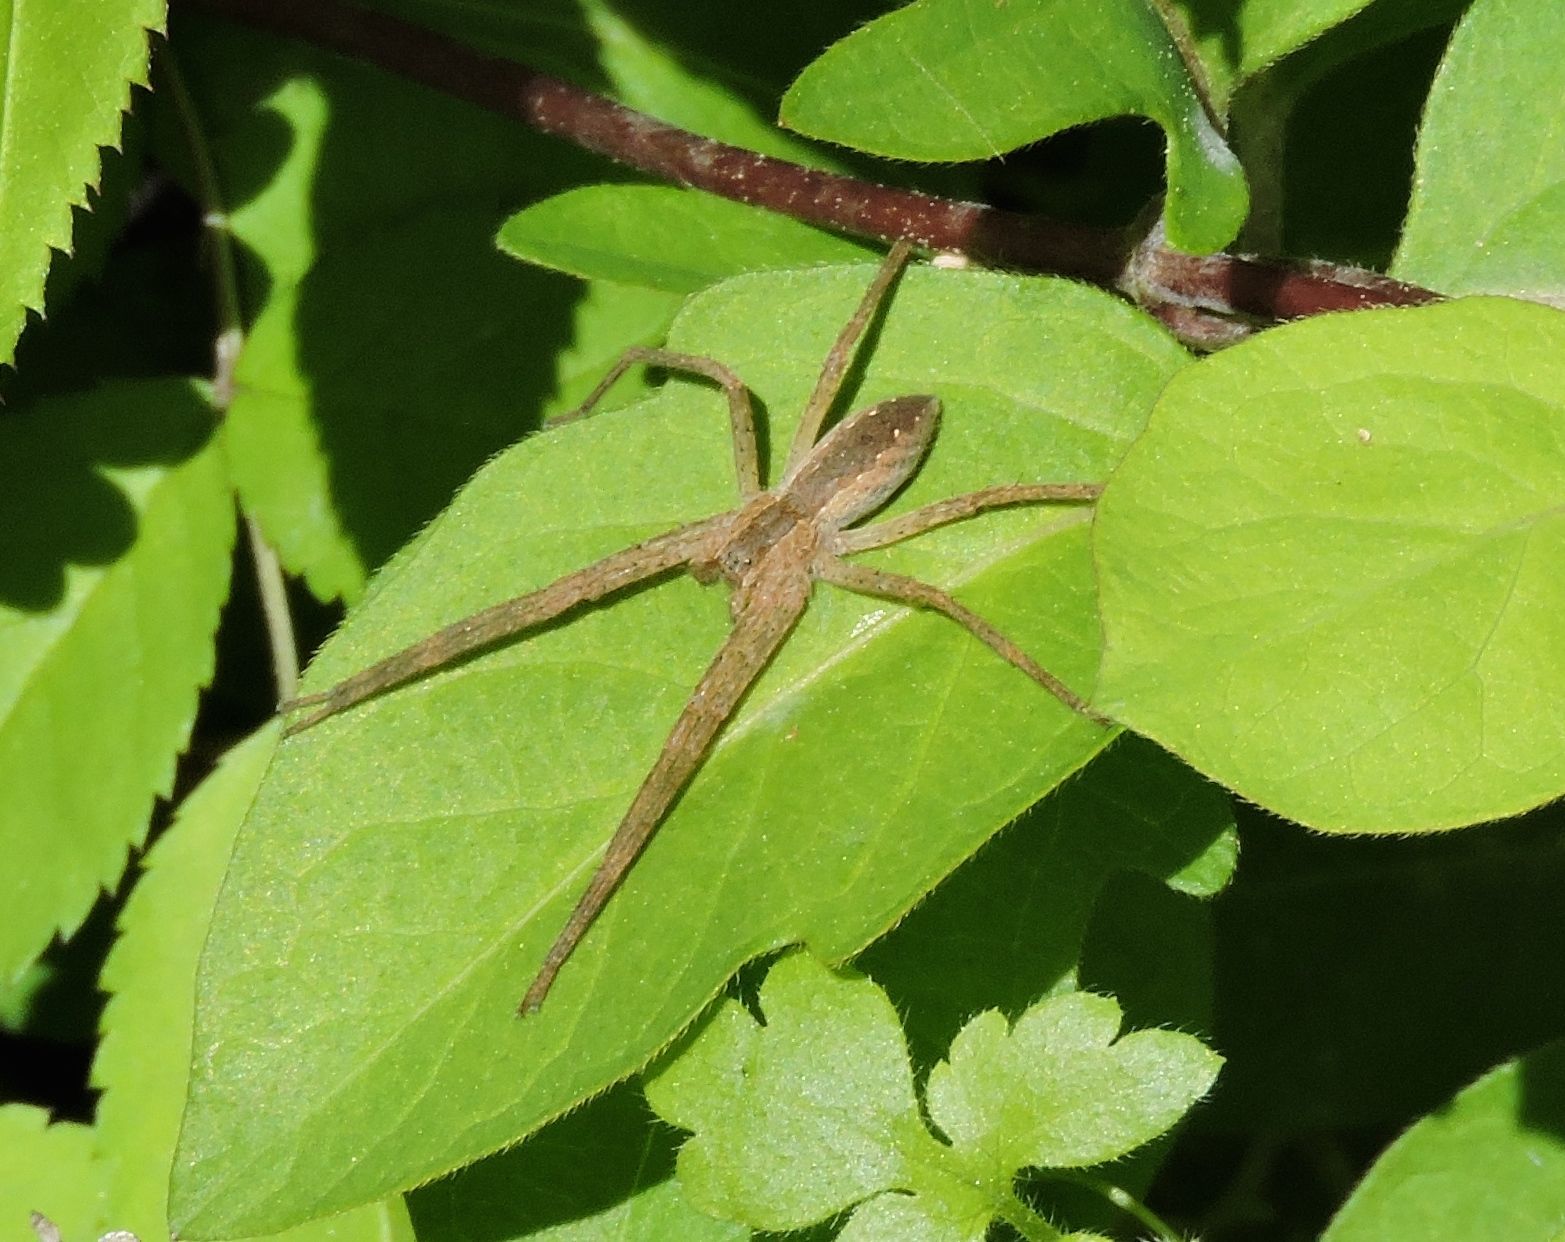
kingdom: Animalia
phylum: Arthropoda
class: Arachnida
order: Araneae
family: Pisauridae
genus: Pisaurina
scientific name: Pisaurina mira
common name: American nursery web spider
